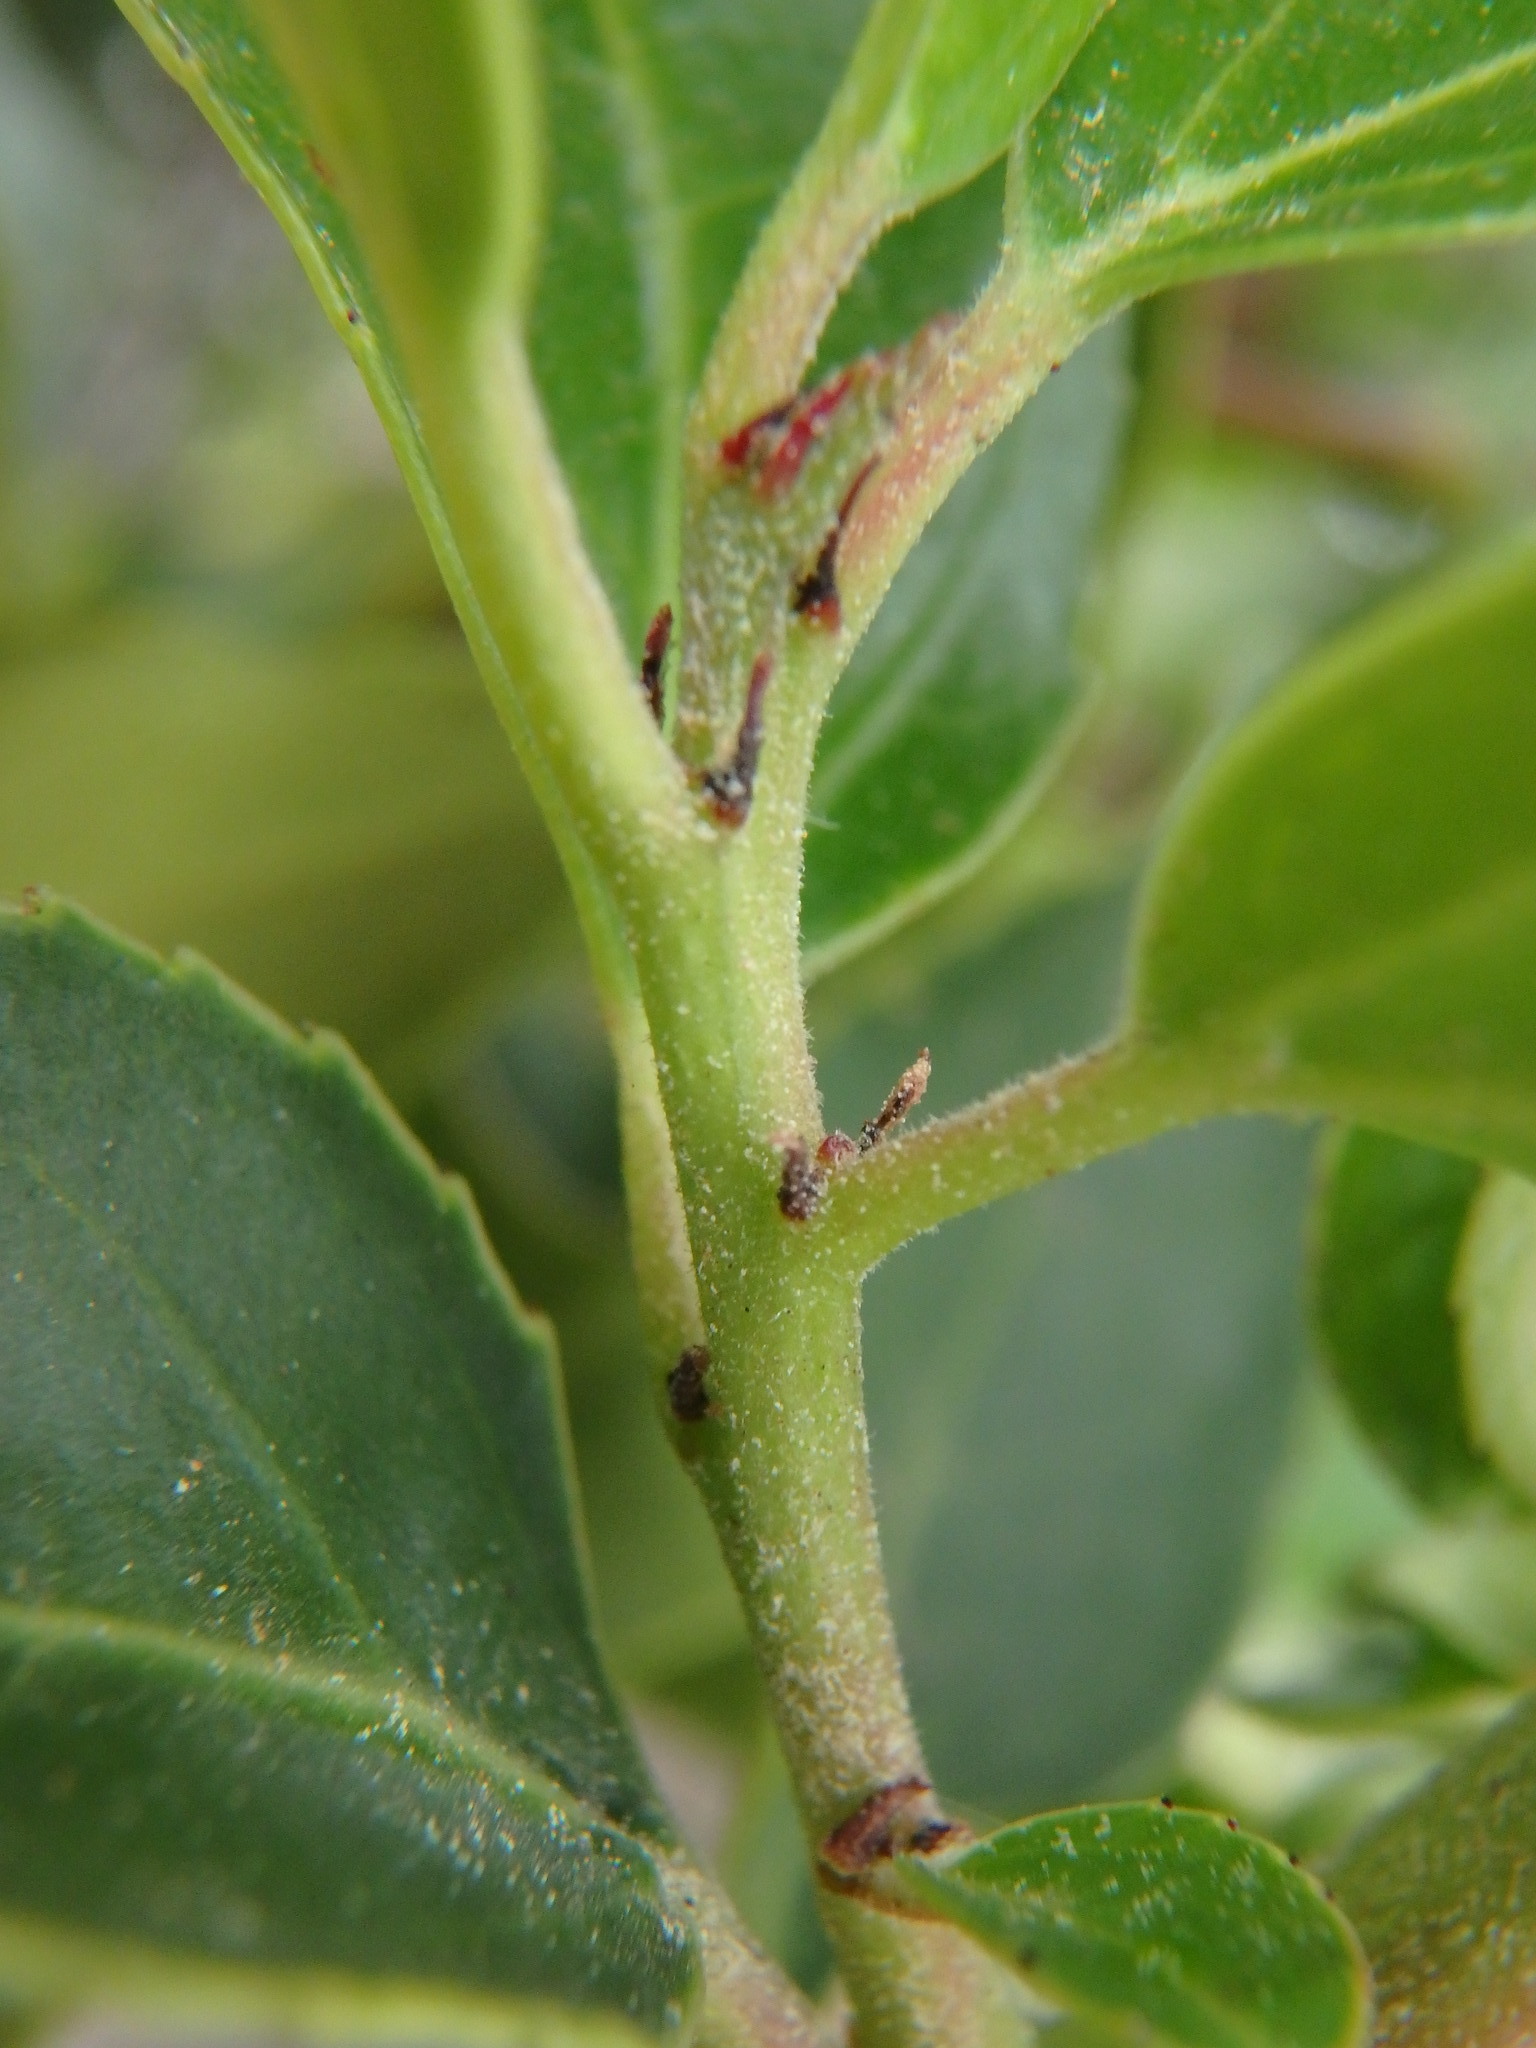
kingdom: Plantae
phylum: Tracheophyta
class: Magnoliopsida
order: Rosales
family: Rhamnaceae
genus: Rhamnus
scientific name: Rhamnus alaternus
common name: Mediterranean buckthorn
